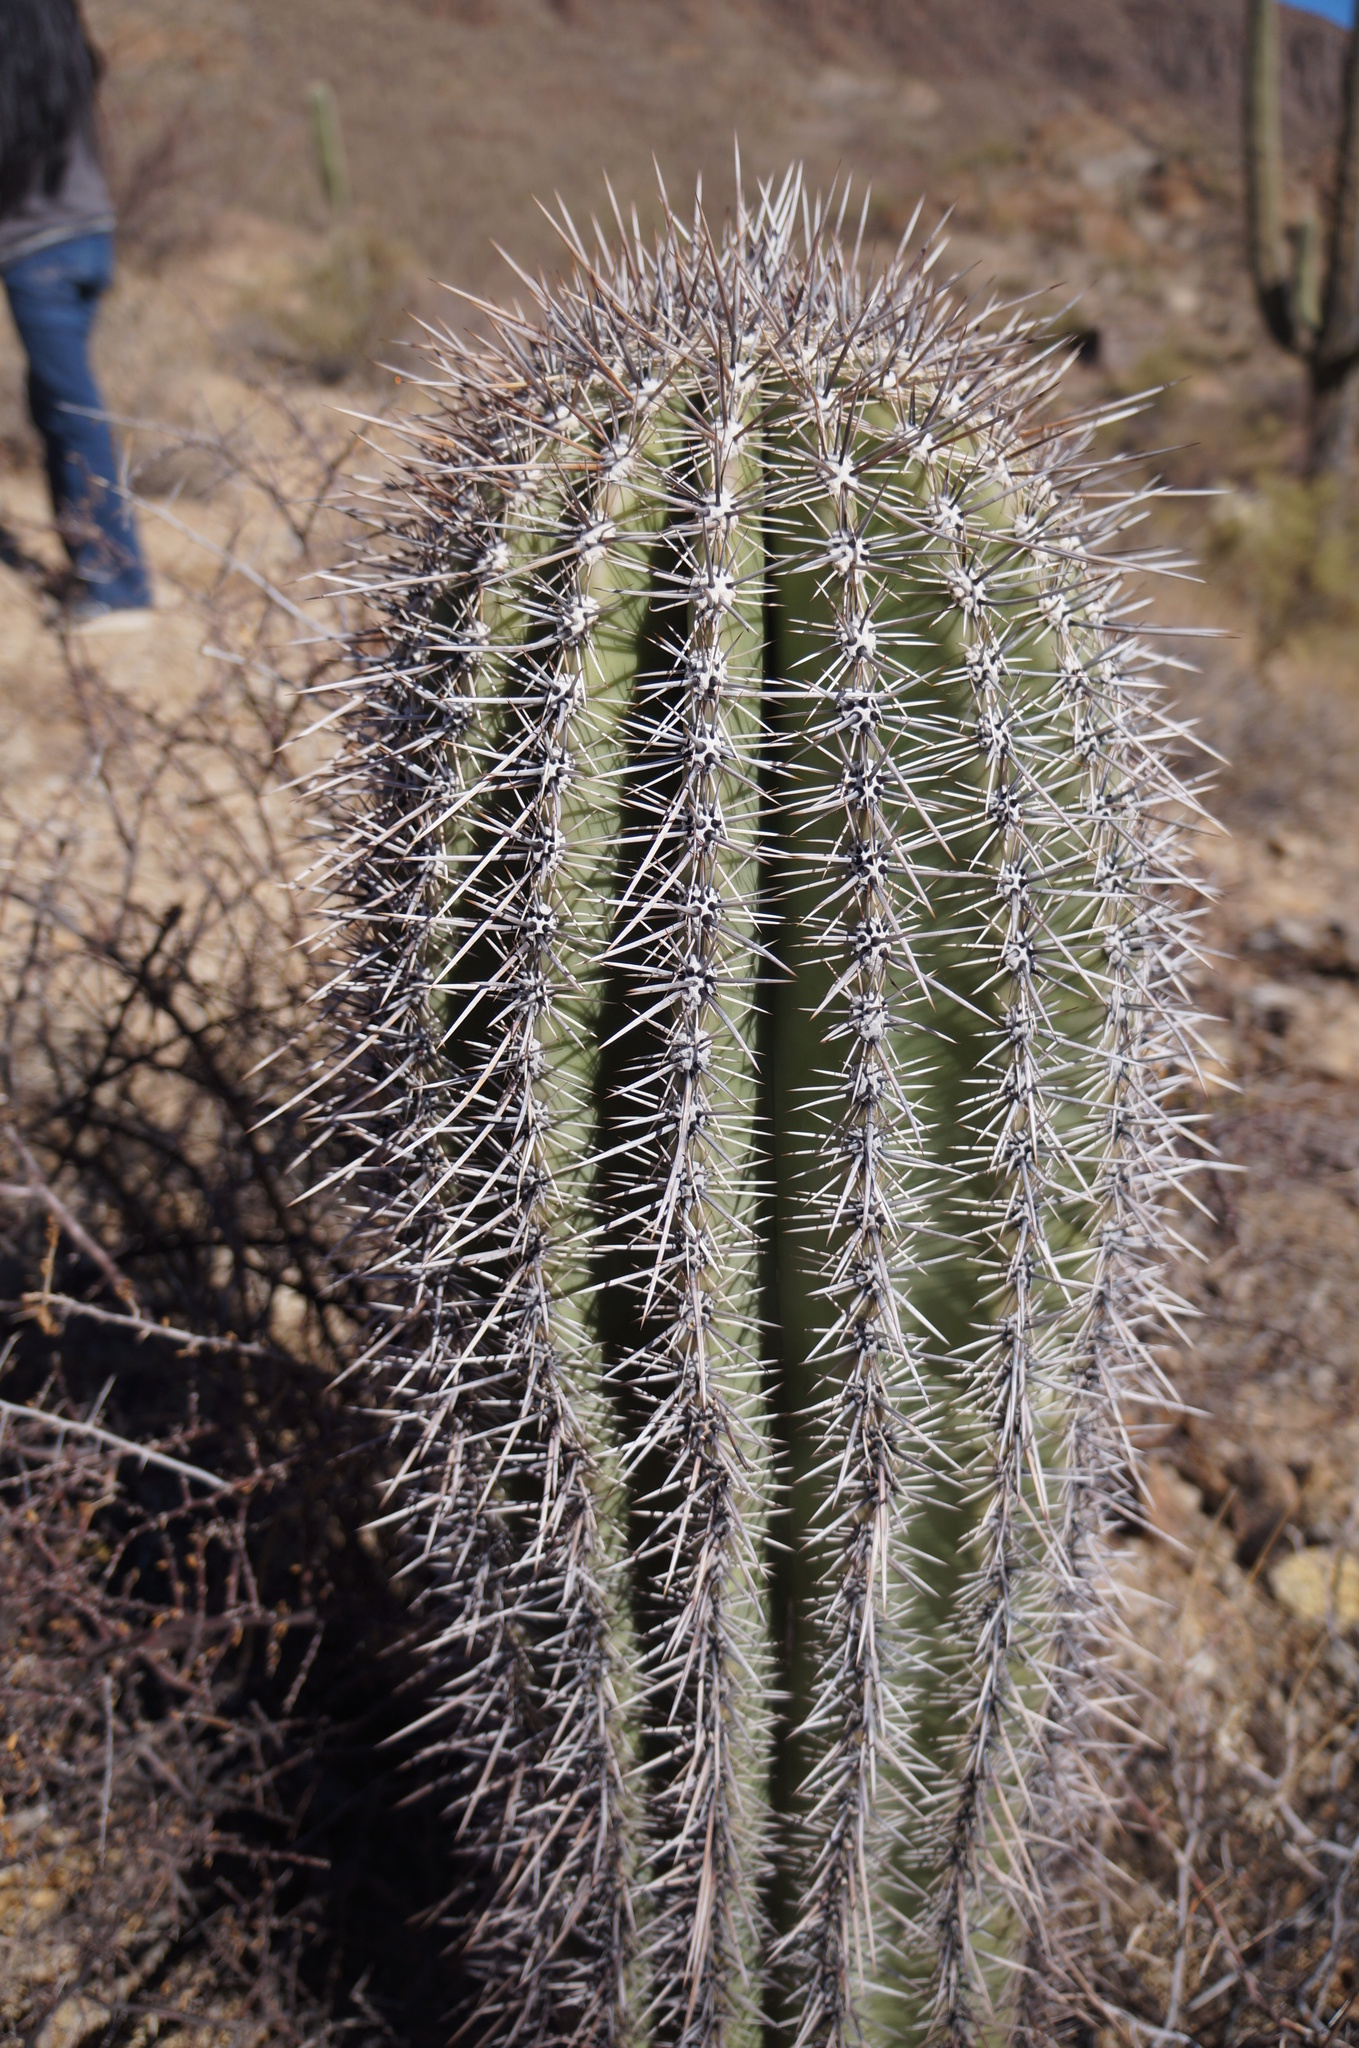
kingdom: Plantae
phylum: Tracheophyta
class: Magnoliopsida
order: Caryophyllales
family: Cactaceae
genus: Carnegiea
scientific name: Carnegiea gigantea
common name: Saguaro
